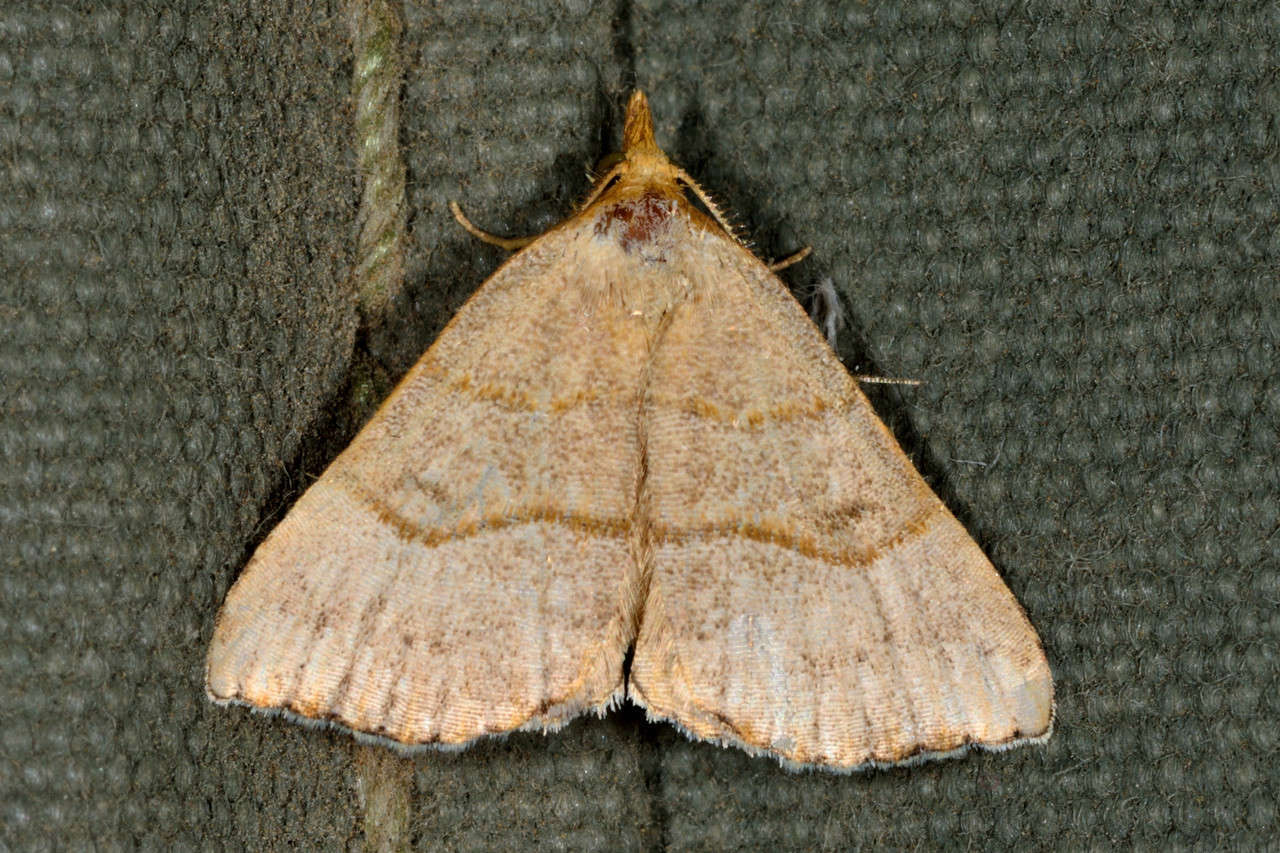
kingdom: Animalia
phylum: Arthropoda
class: Insecta
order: Lepidoptera
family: Erebidae
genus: Meranda
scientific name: Meranda susialis
